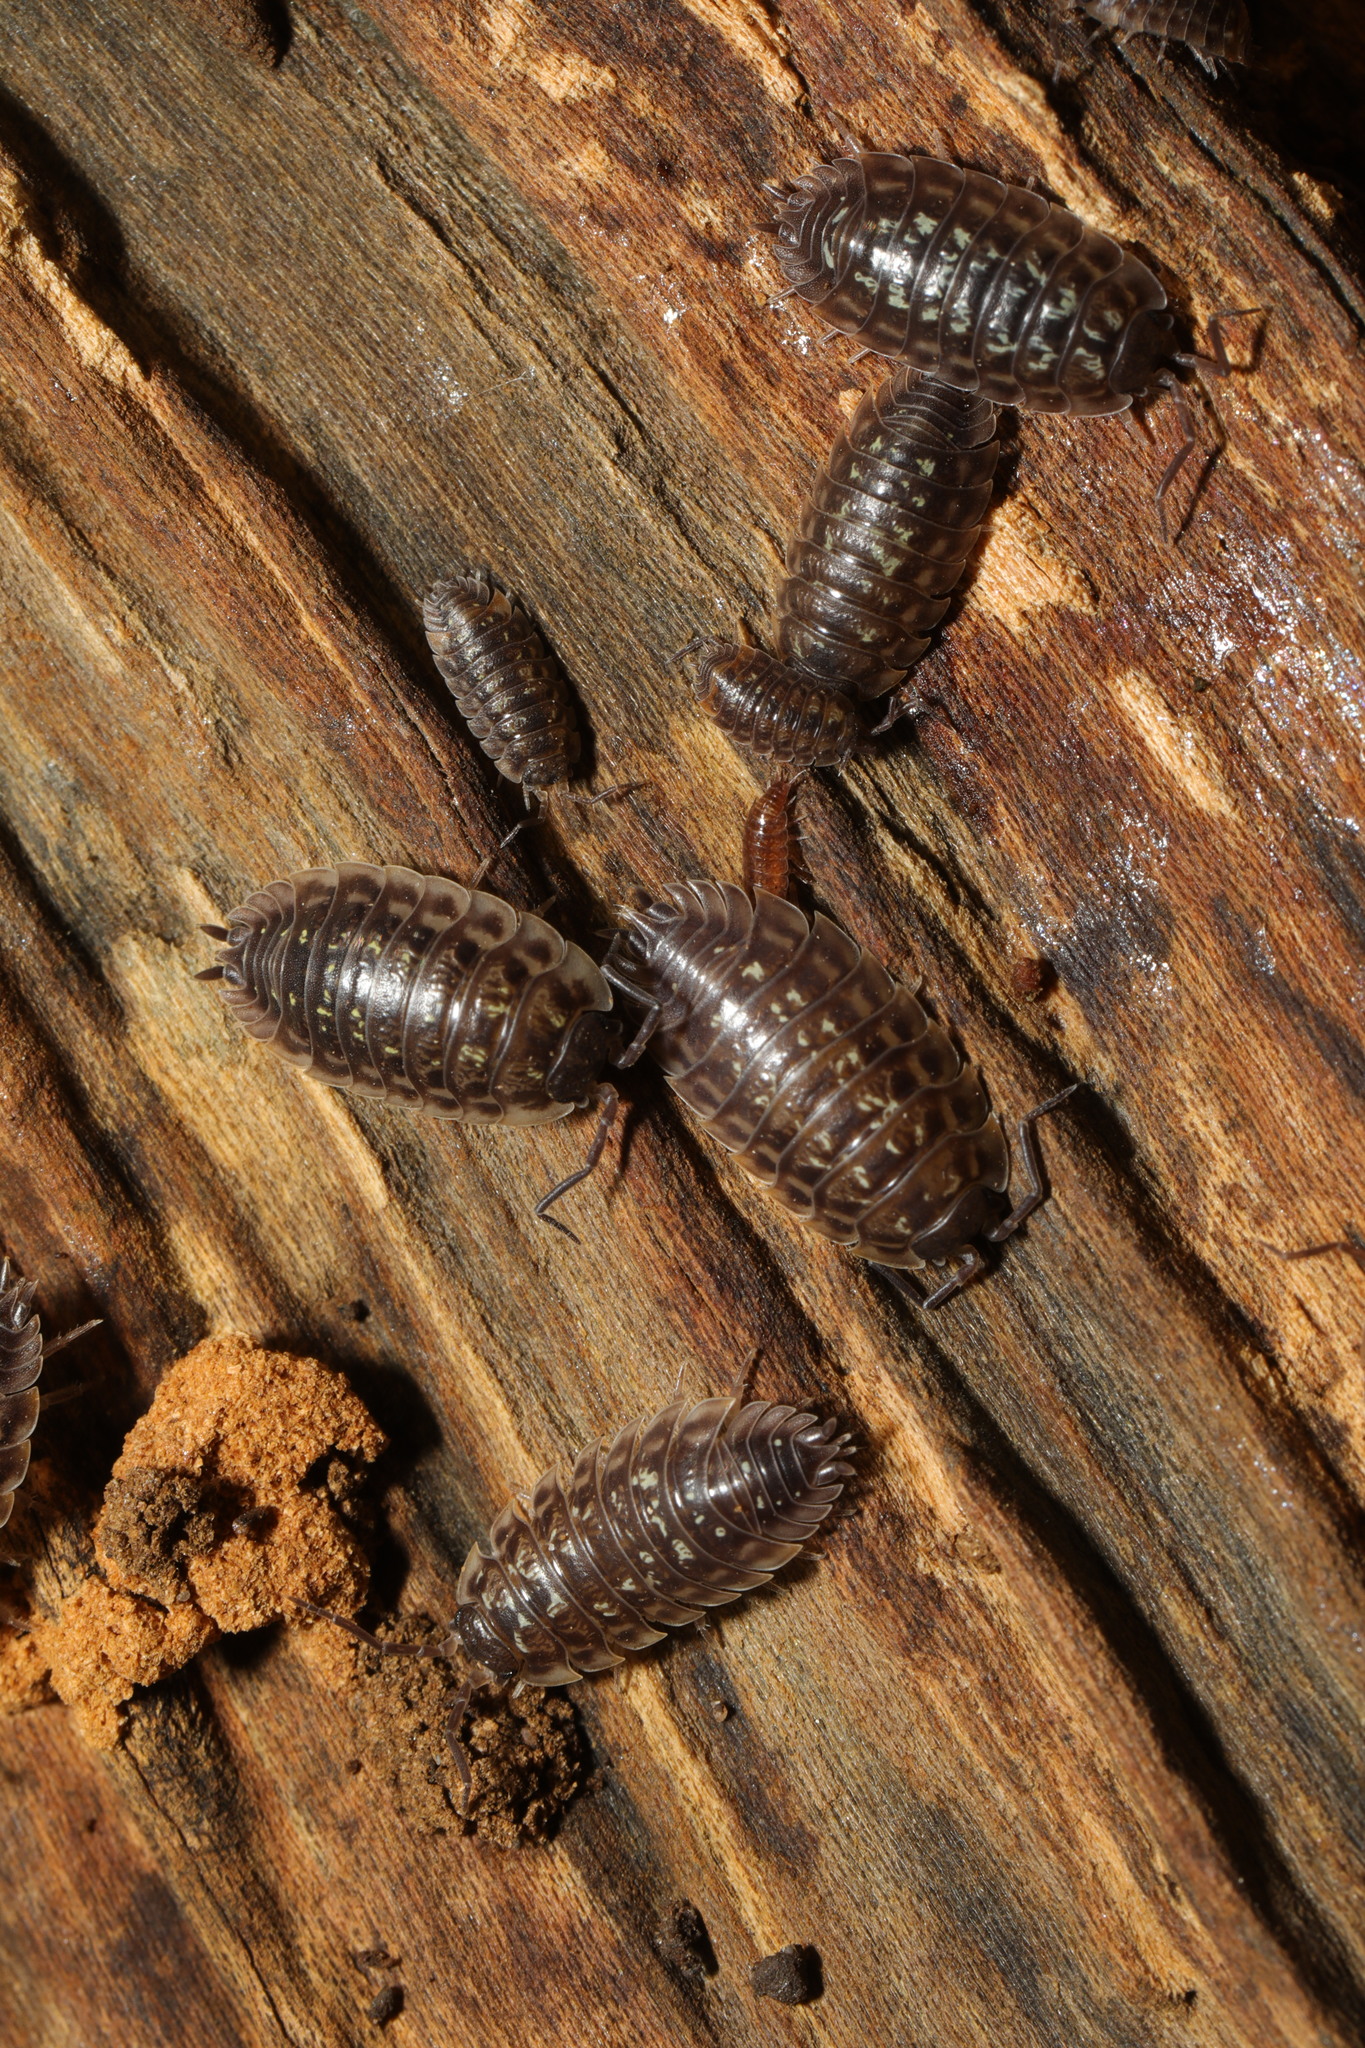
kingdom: Animalia
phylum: Arthropoda
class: Malacostraca
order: Isopoda
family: Oniscidae
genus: Oniscus
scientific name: Oniscus asellus
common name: Common shiny woodlouse
